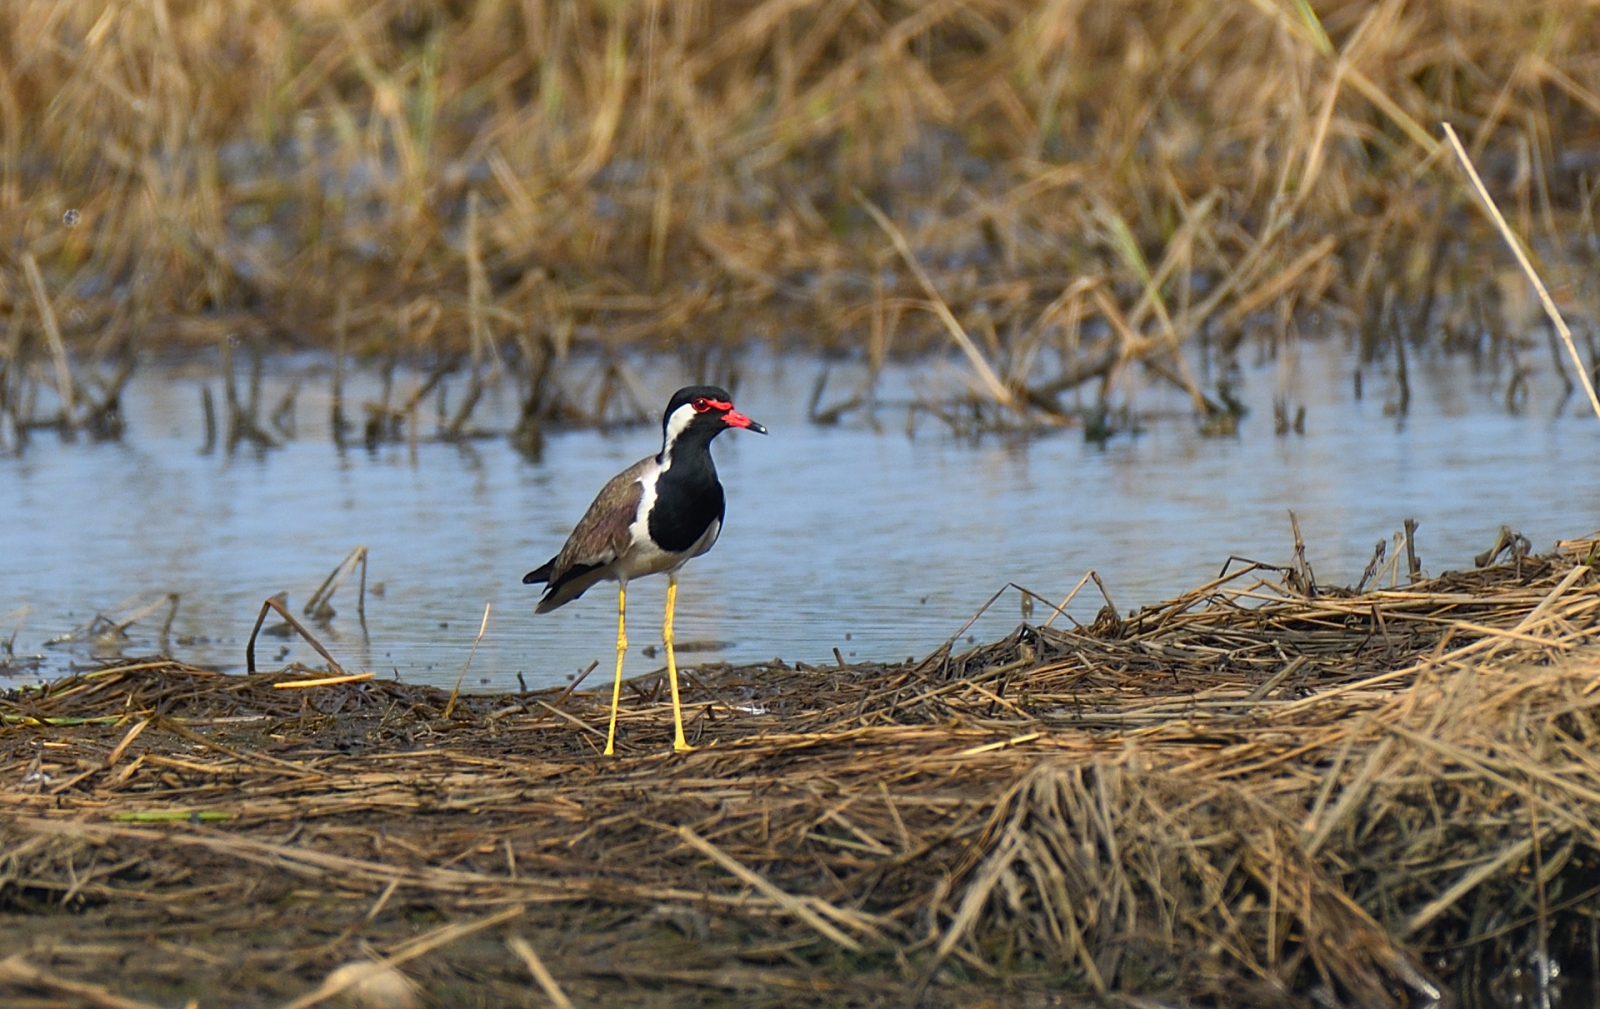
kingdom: Animalia
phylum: Chordata
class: Aves
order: Charadriiformes
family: Charadriidae
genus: Vanellus
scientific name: Vanellus indicus
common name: Red-wattled lapwing
